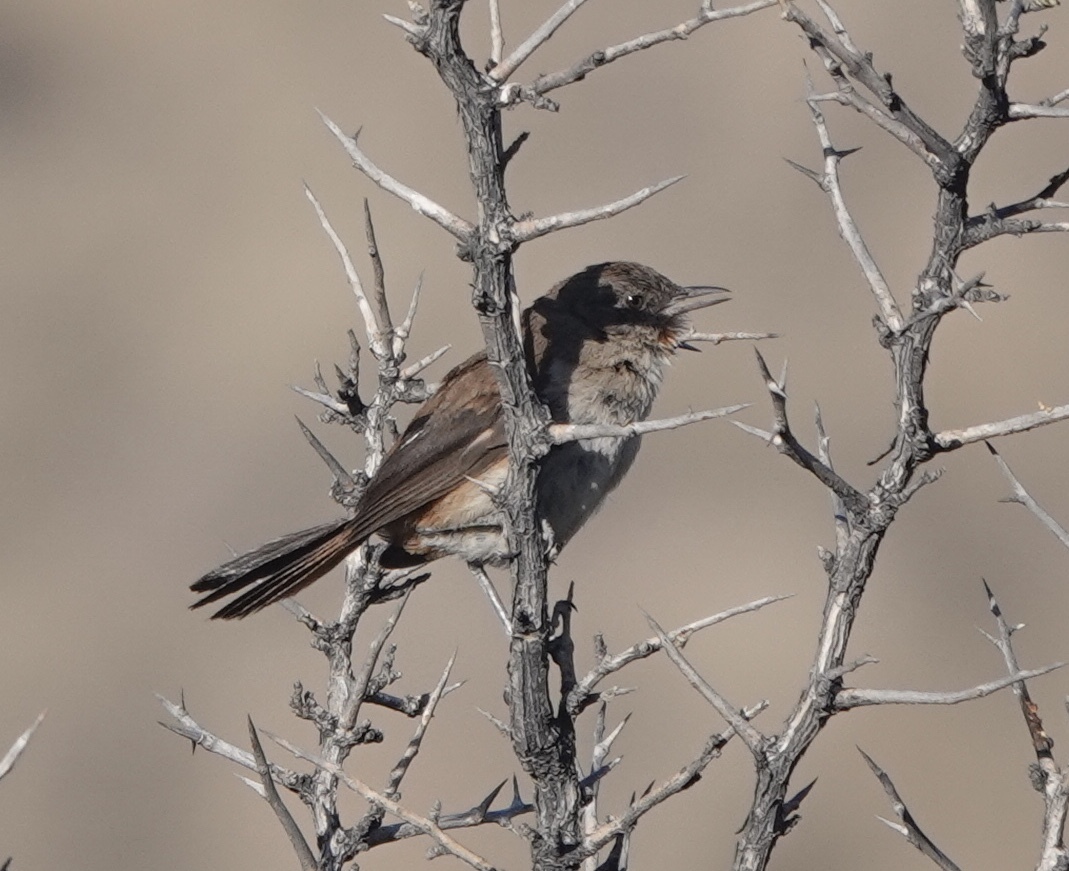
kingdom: Animalia
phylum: Chordata
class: Aves
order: Passeriformes
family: Furnariidae
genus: Asthenes
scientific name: Asthenes dorbignyi
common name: Rusty-vented canastero
